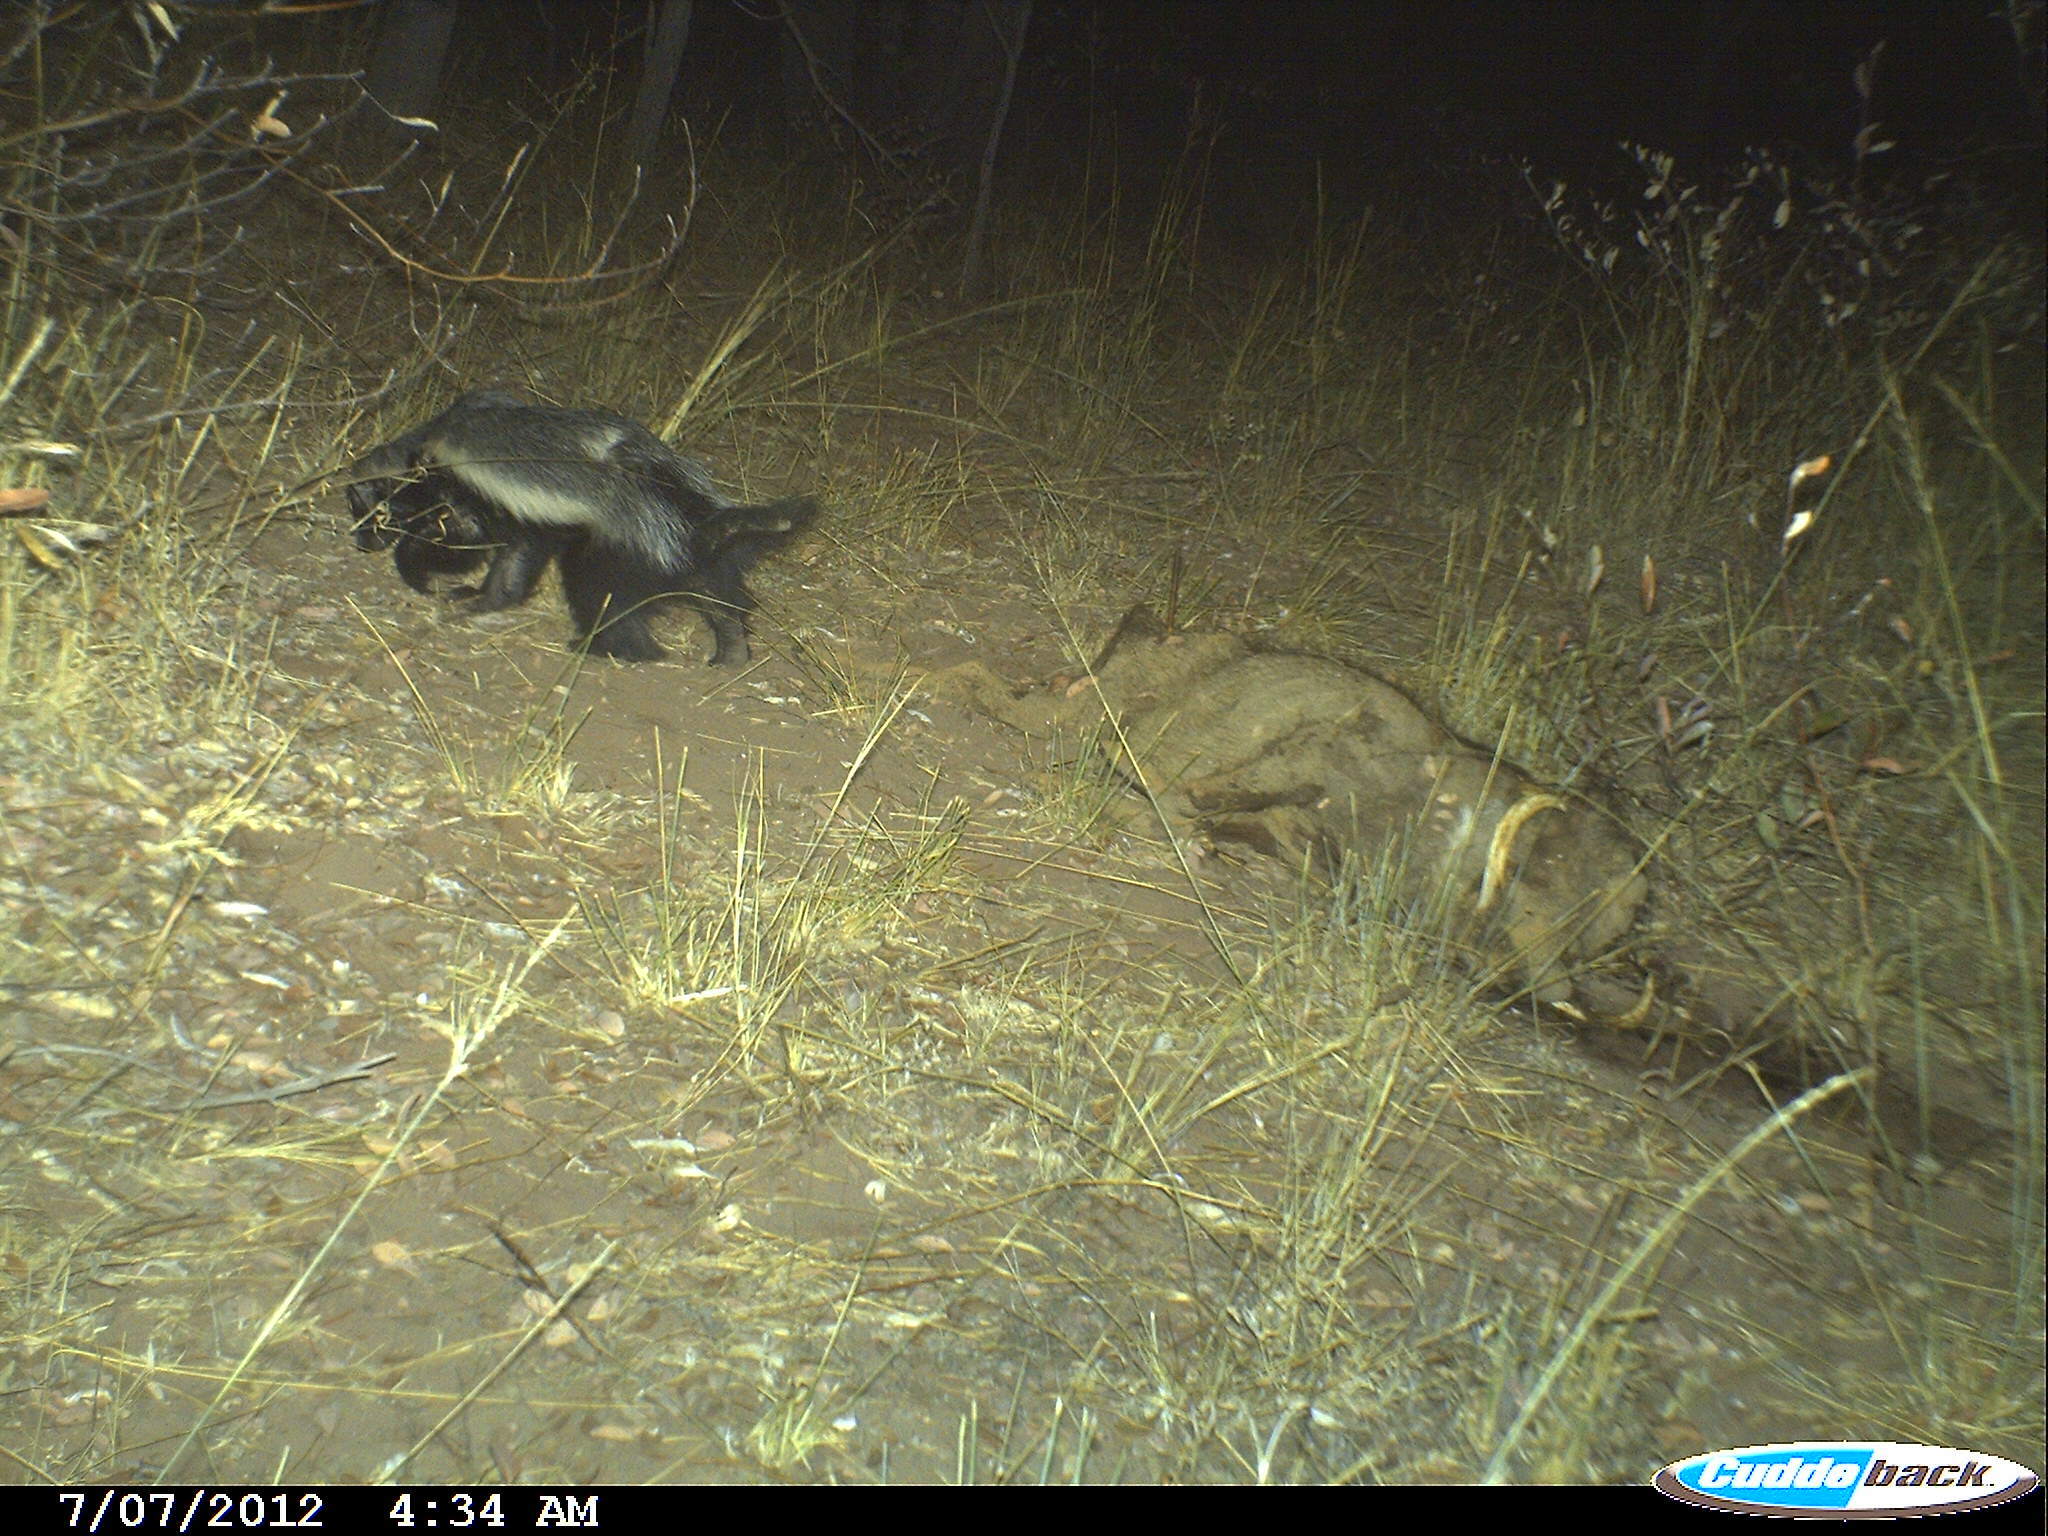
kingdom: Animalia
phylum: Chordata
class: Mammalia
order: Carnivora
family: Mustelidae
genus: Mellivora
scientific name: Mellivora capensis
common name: Honey badger
